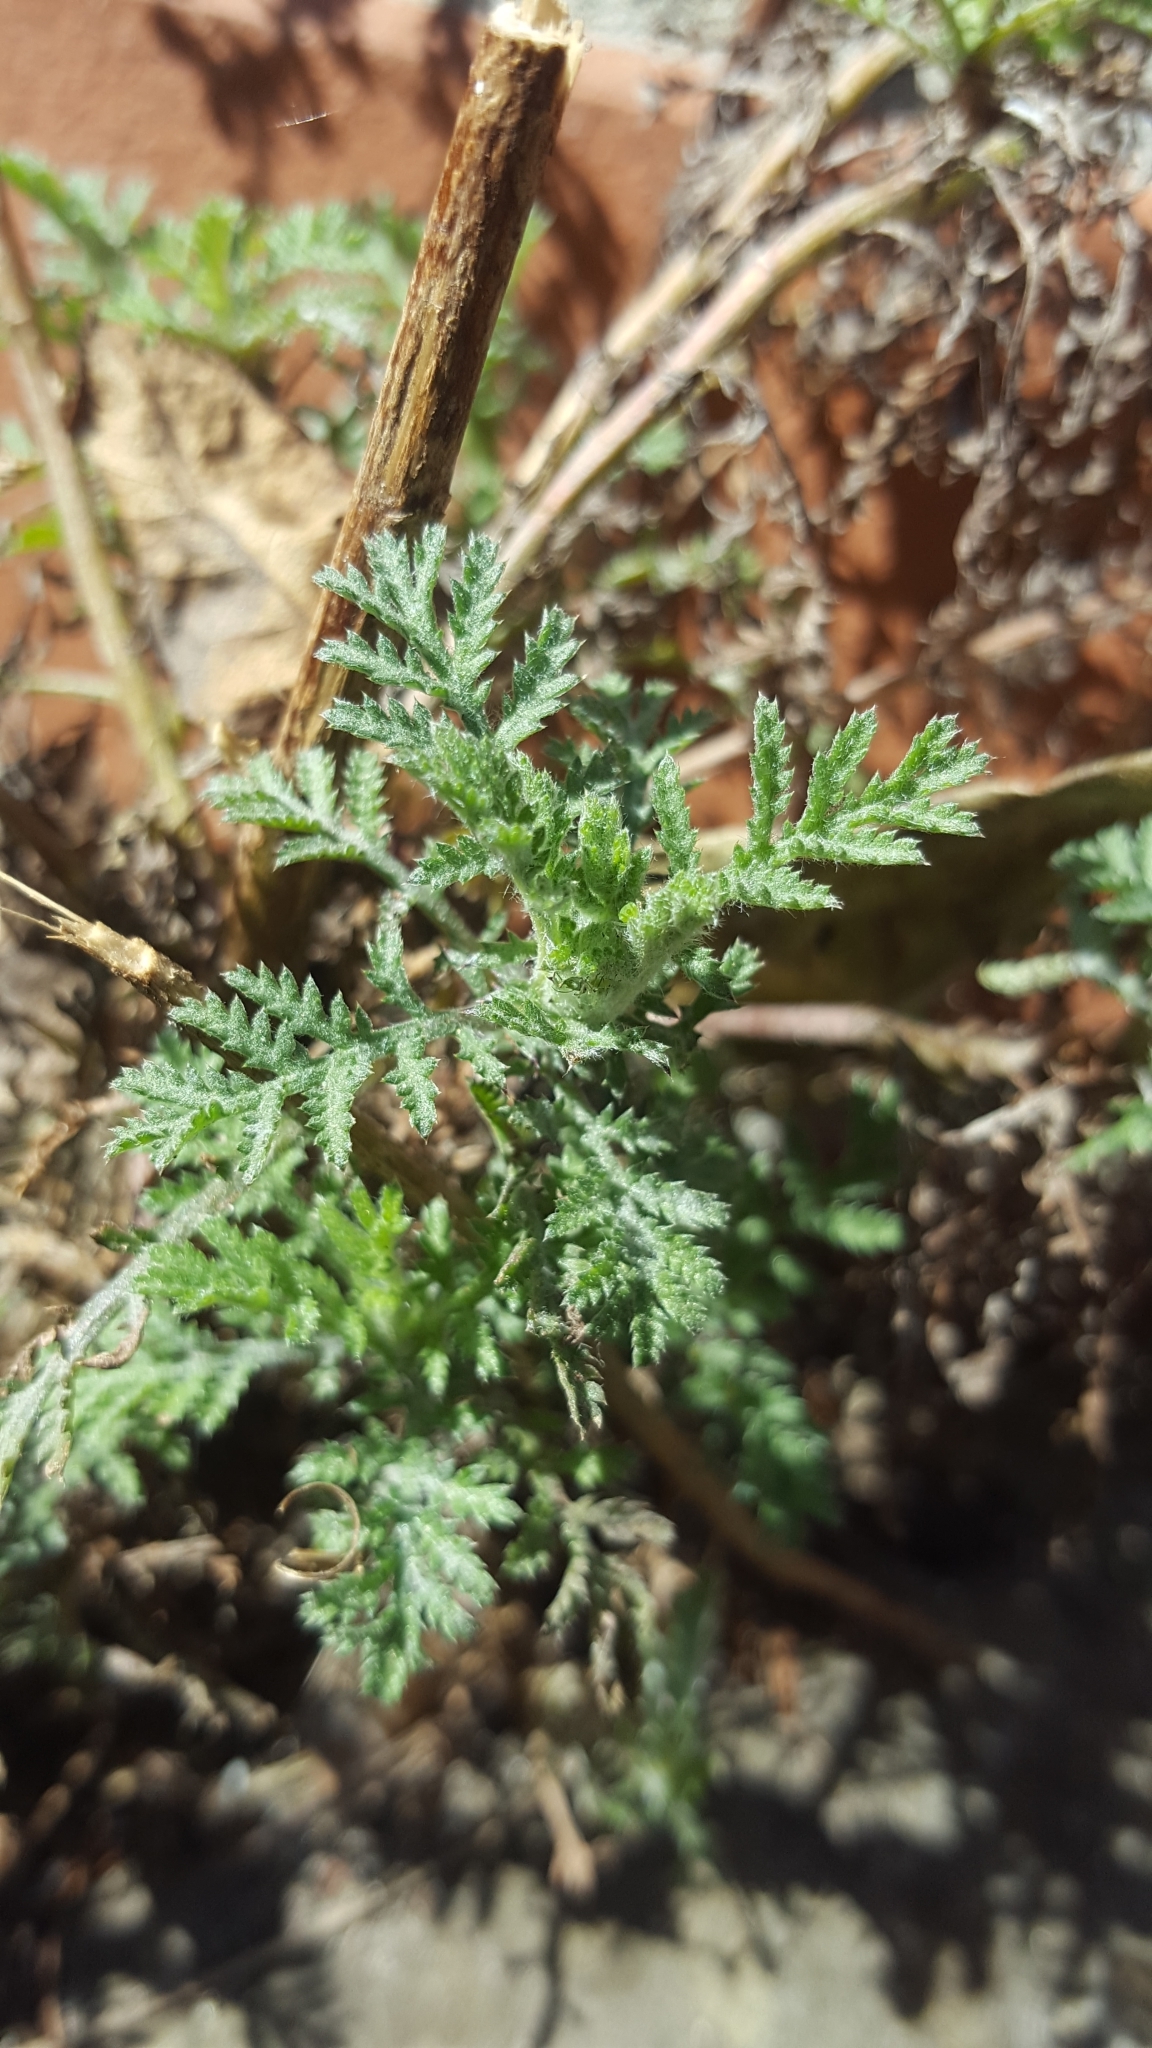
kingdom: Plantae
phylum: Tracheophyta
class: Magnoliopsida
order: Boraginales
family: Hydrophyllaceae
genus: Phacelia
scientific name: Phacelia tanacetifolia
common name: Phacelia
